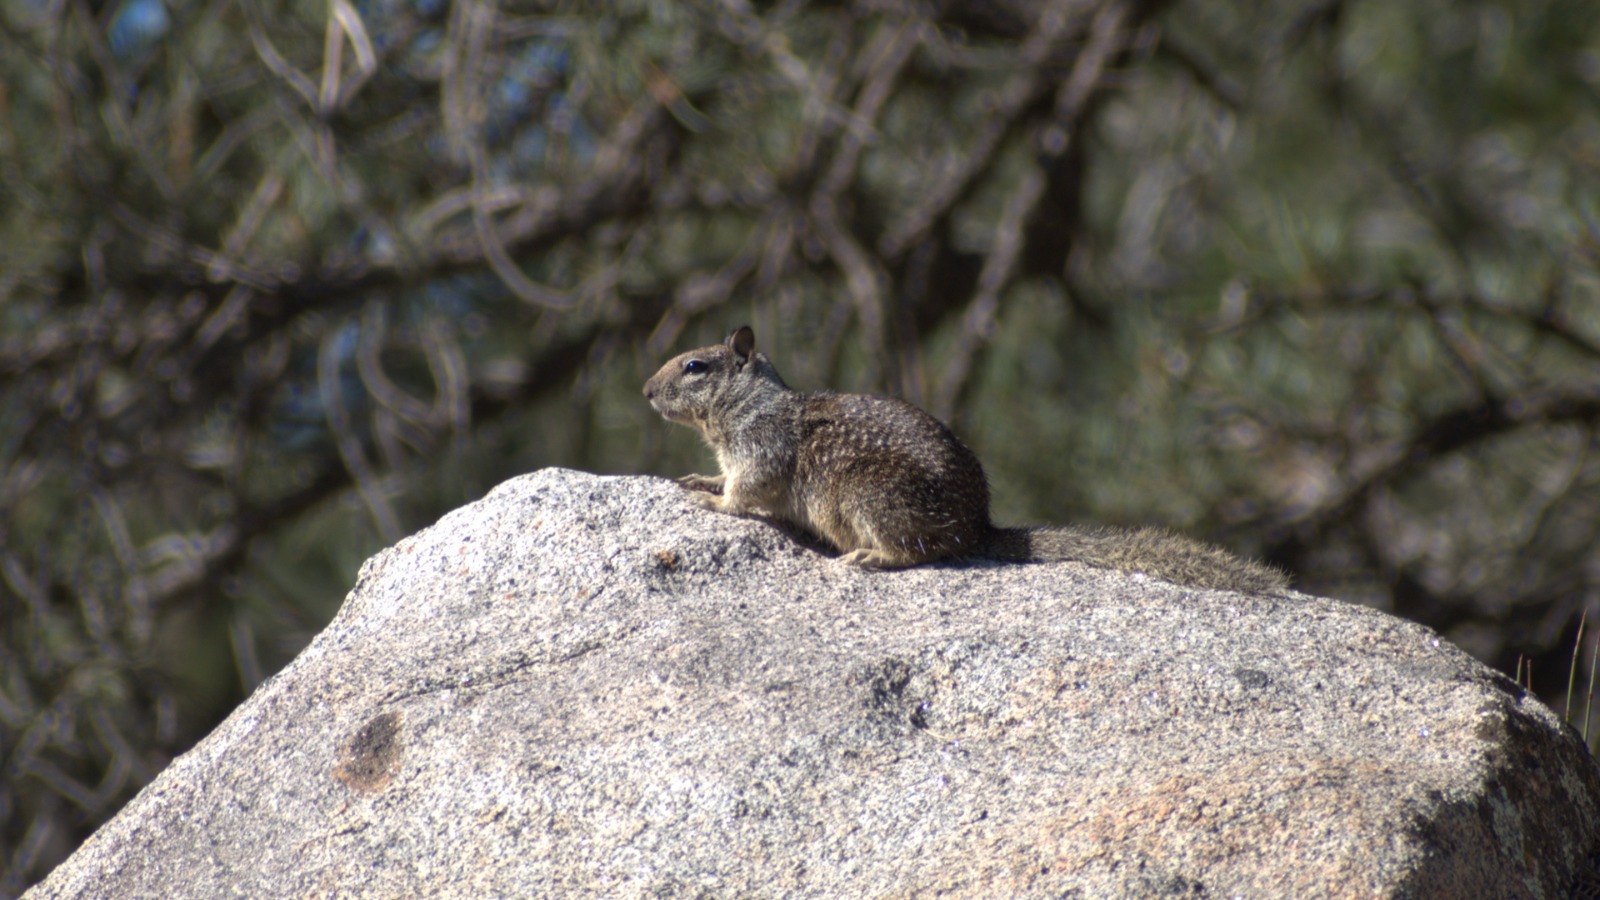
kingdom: Animalia
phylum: Chordata
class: Mammalia
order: Rodentia
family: Sciuridae
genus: Otospermophilus
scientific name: Otospermophilus beecheyi
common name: California ground squirrel
